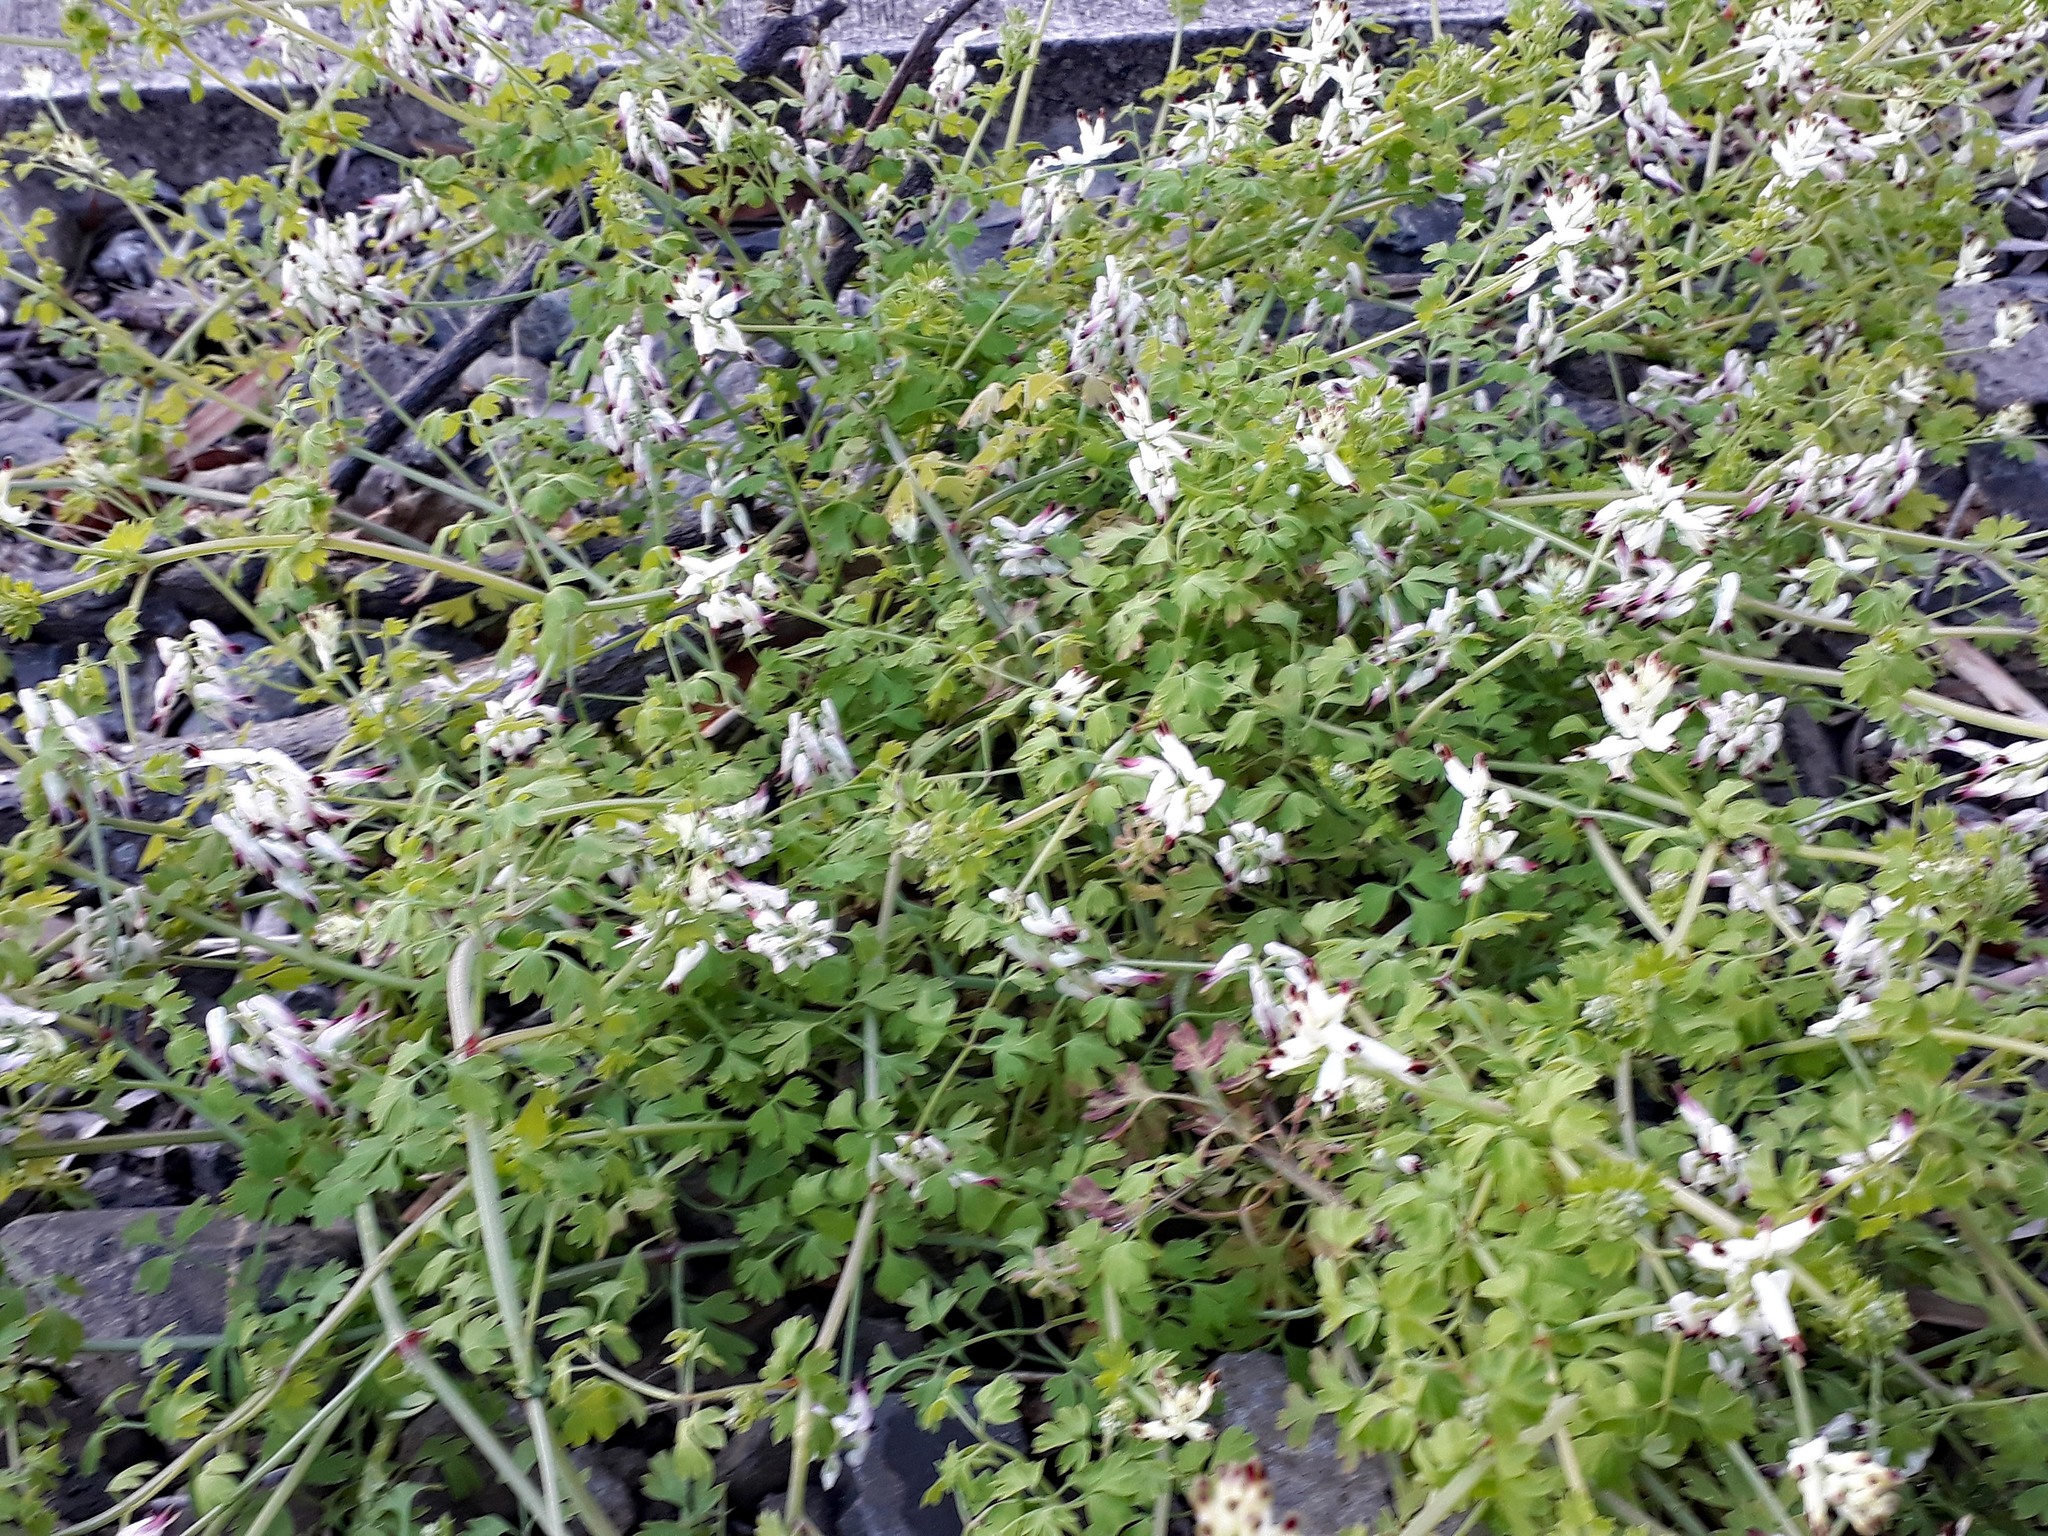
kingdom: Plantae
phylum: Tracheophyta
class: Magnoliopsida
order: Ranunculales
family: Papaveraceae
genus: Fumaria
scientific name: Fumaria capreolata
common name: White ramping-fumitory
